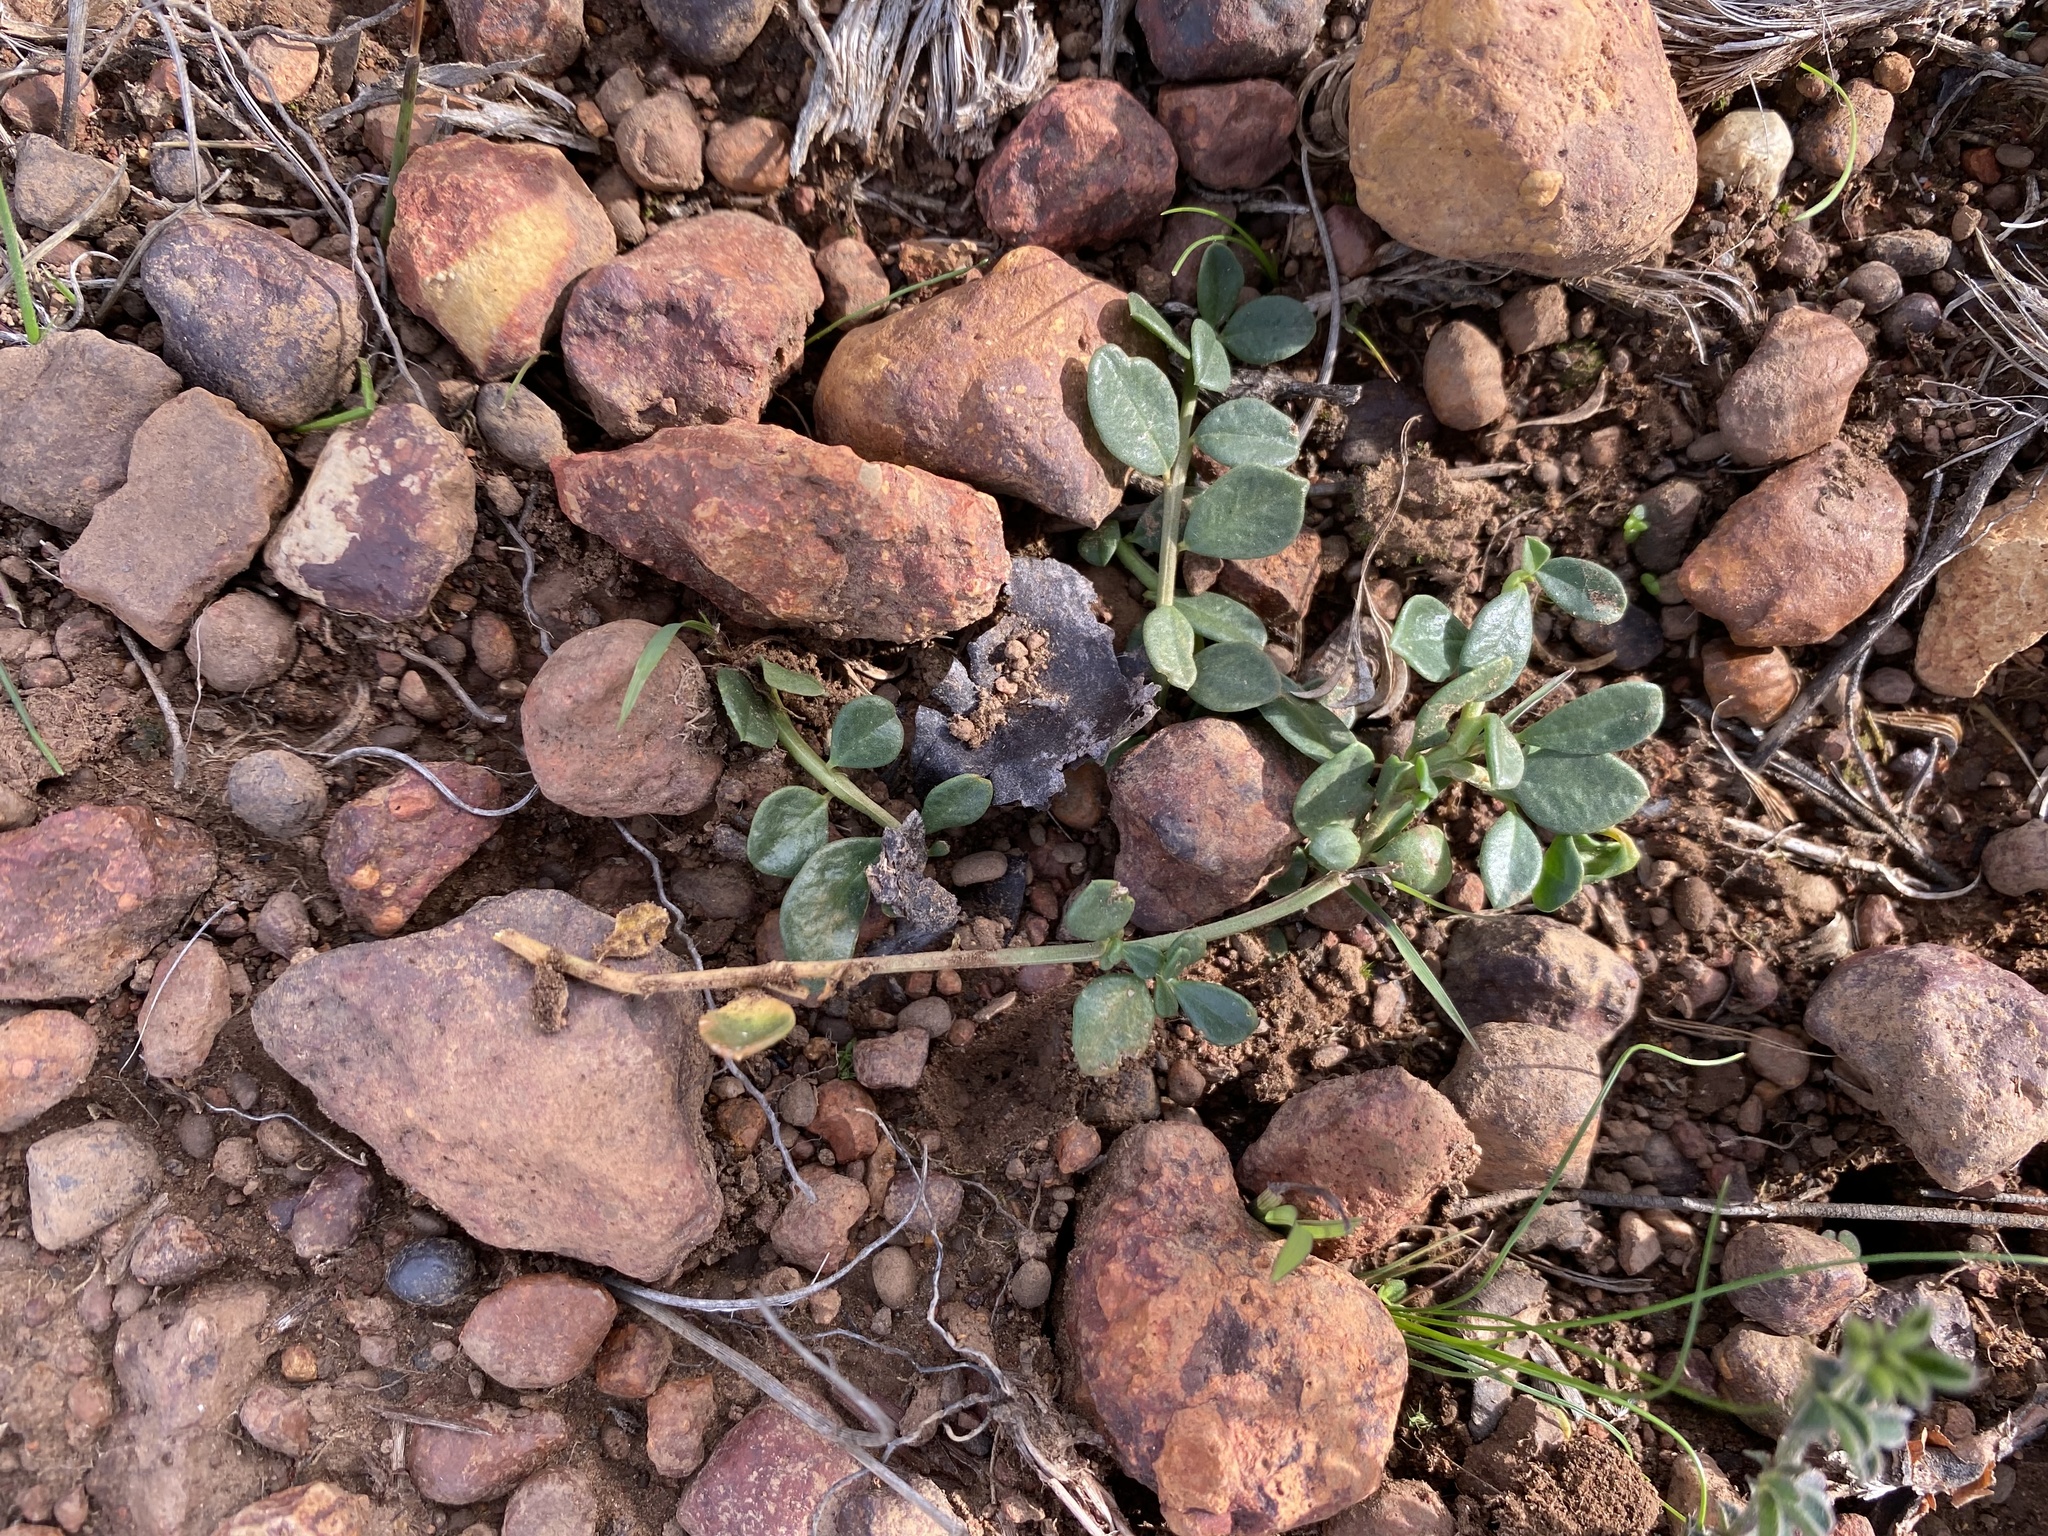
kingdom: Plantae
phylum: Tracheophyta
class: Magnoliopsida
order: Caryophyllales
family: Limeaceae
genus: Limeum
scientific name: Limeum telephioides
